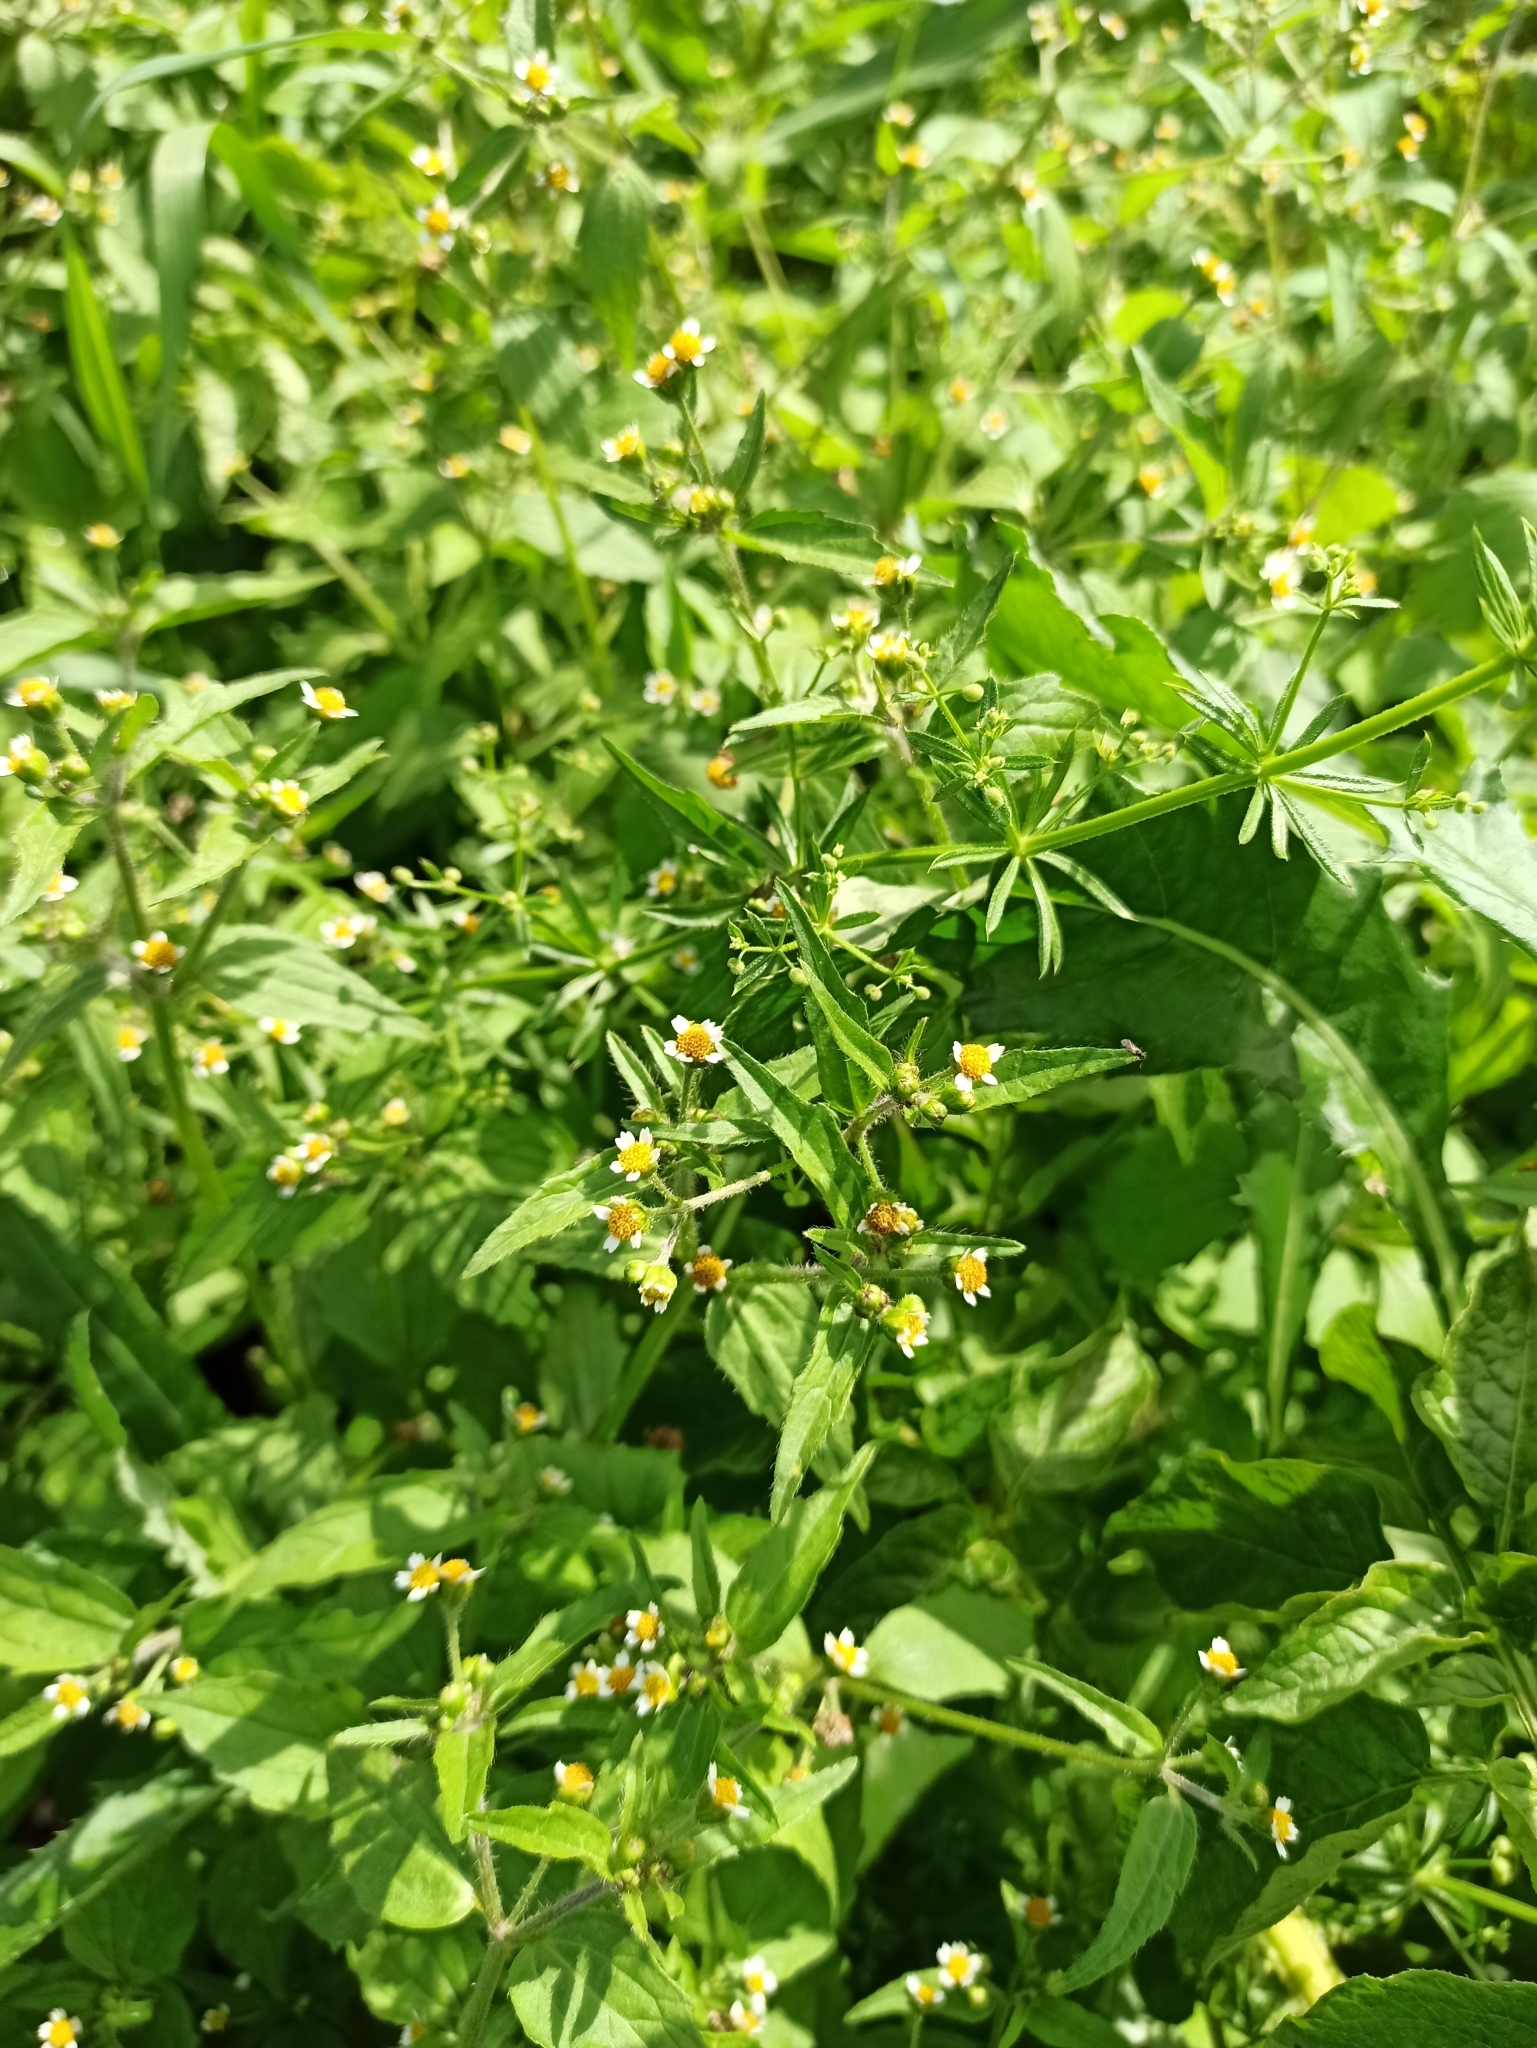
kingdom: Plantae
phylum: Tracheophyta
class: Magnoliopsida
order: Asterales
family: Asteraceae
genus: Galinsoga
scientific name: Galinsoga quadriradiata
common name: Shaggy soldier
